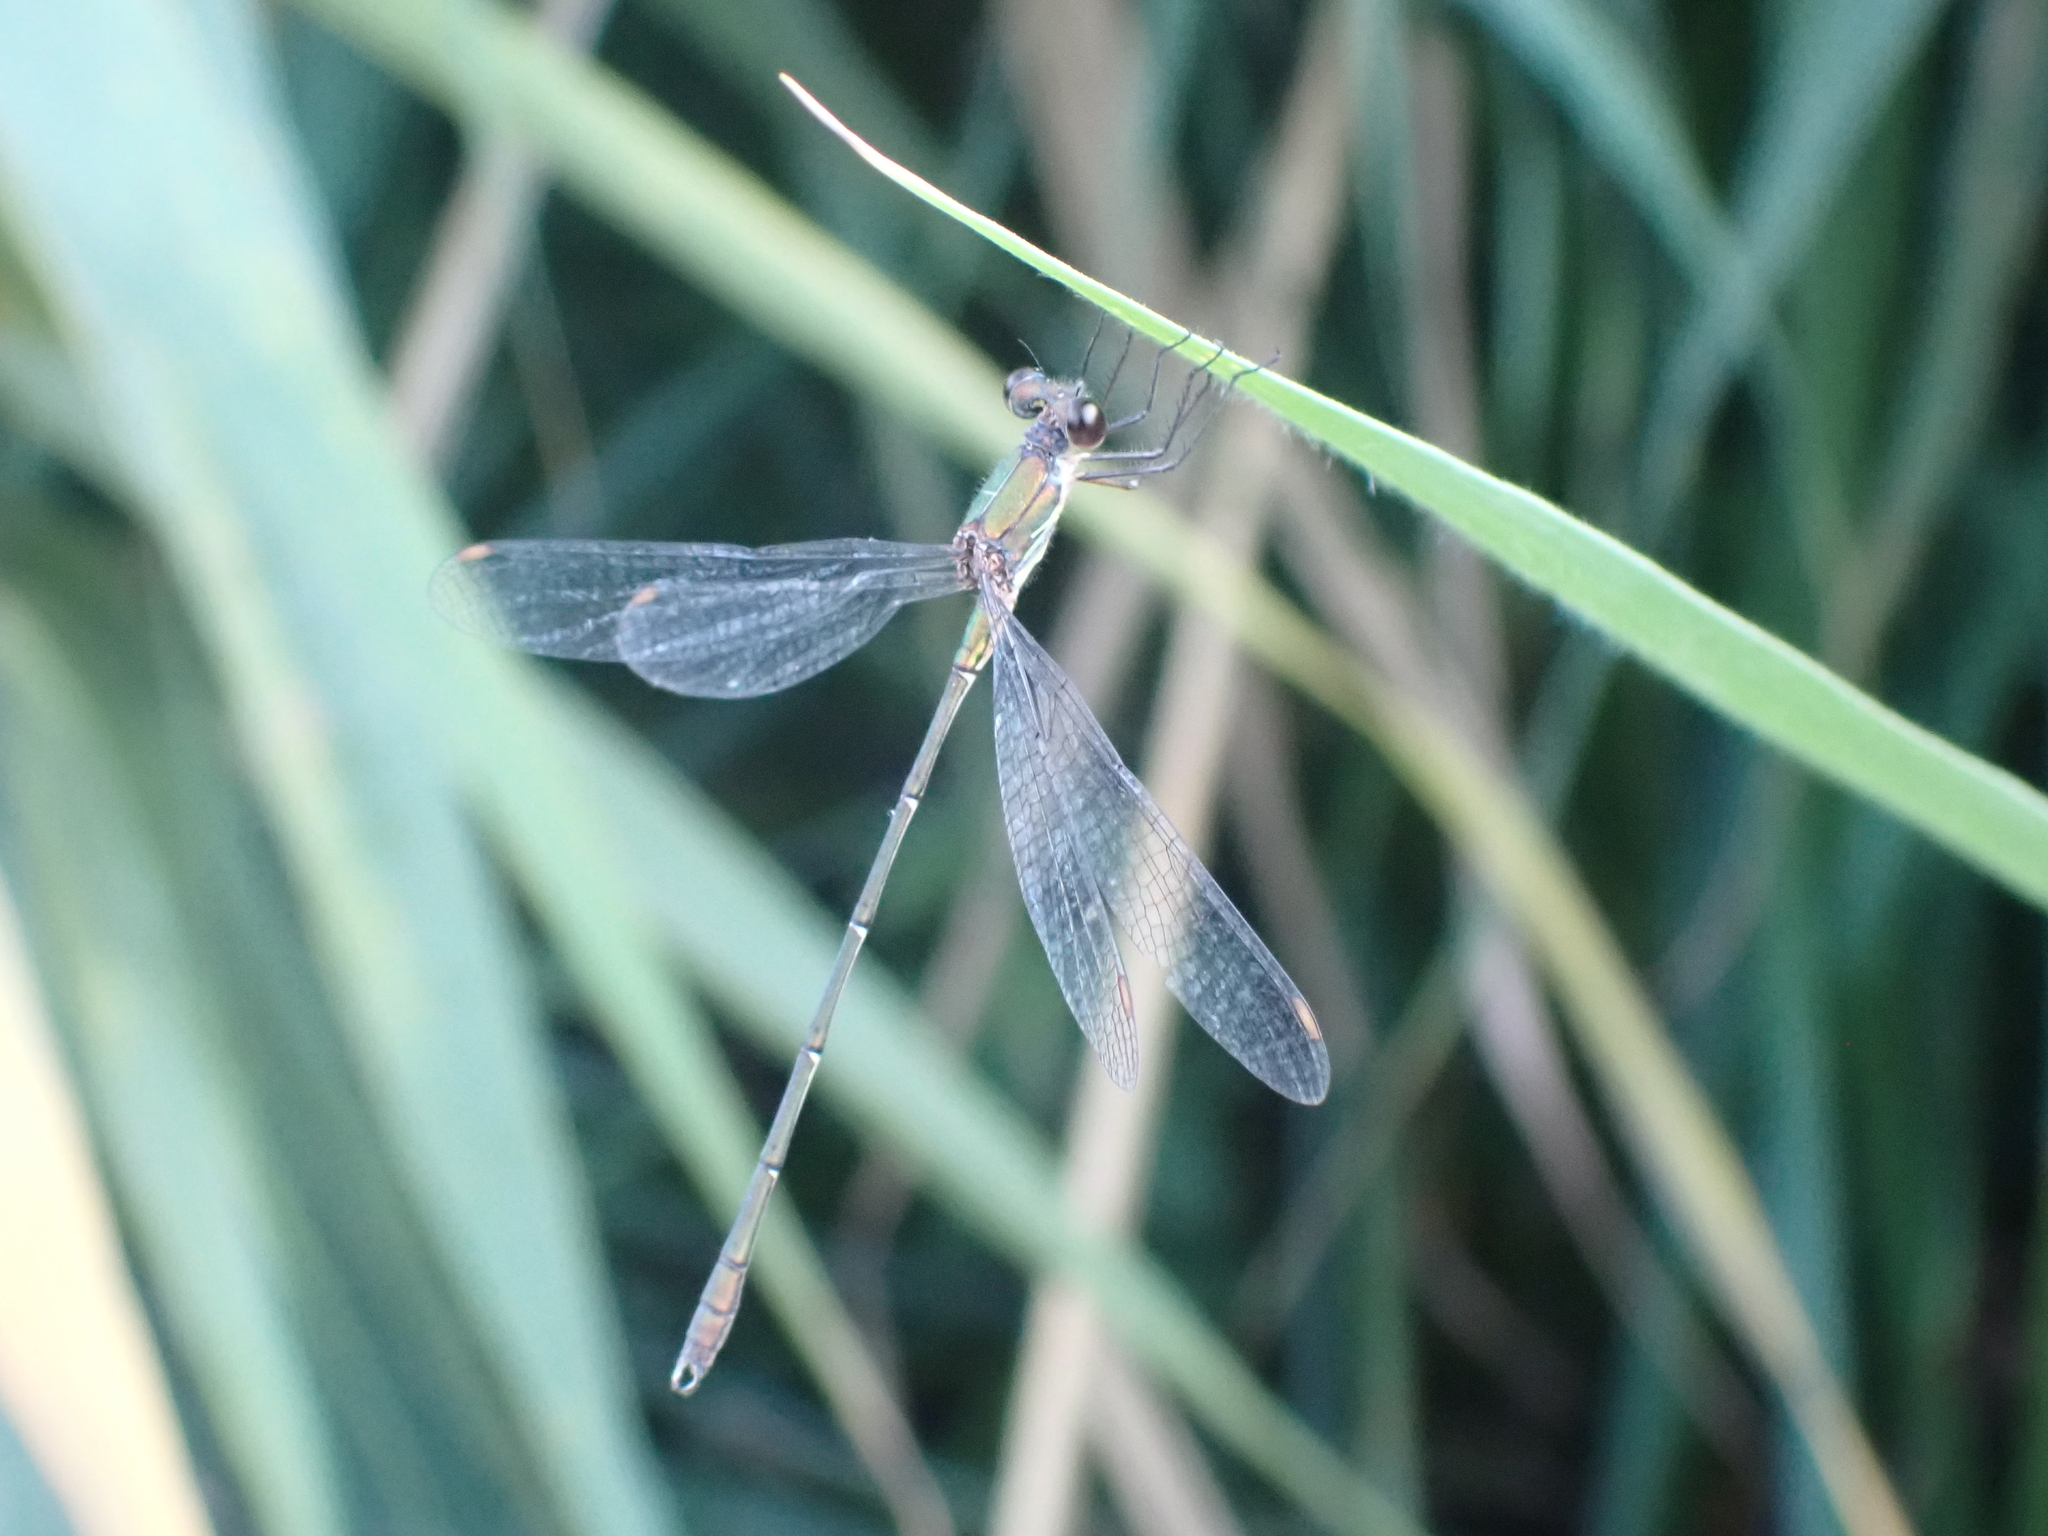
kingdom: Animalia
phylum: Arthropoda
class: Insecta
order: Odonata
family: Lestidae
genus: Chalcolestes
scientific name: Chalcolestes viridis
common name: Green emerald damselfly
